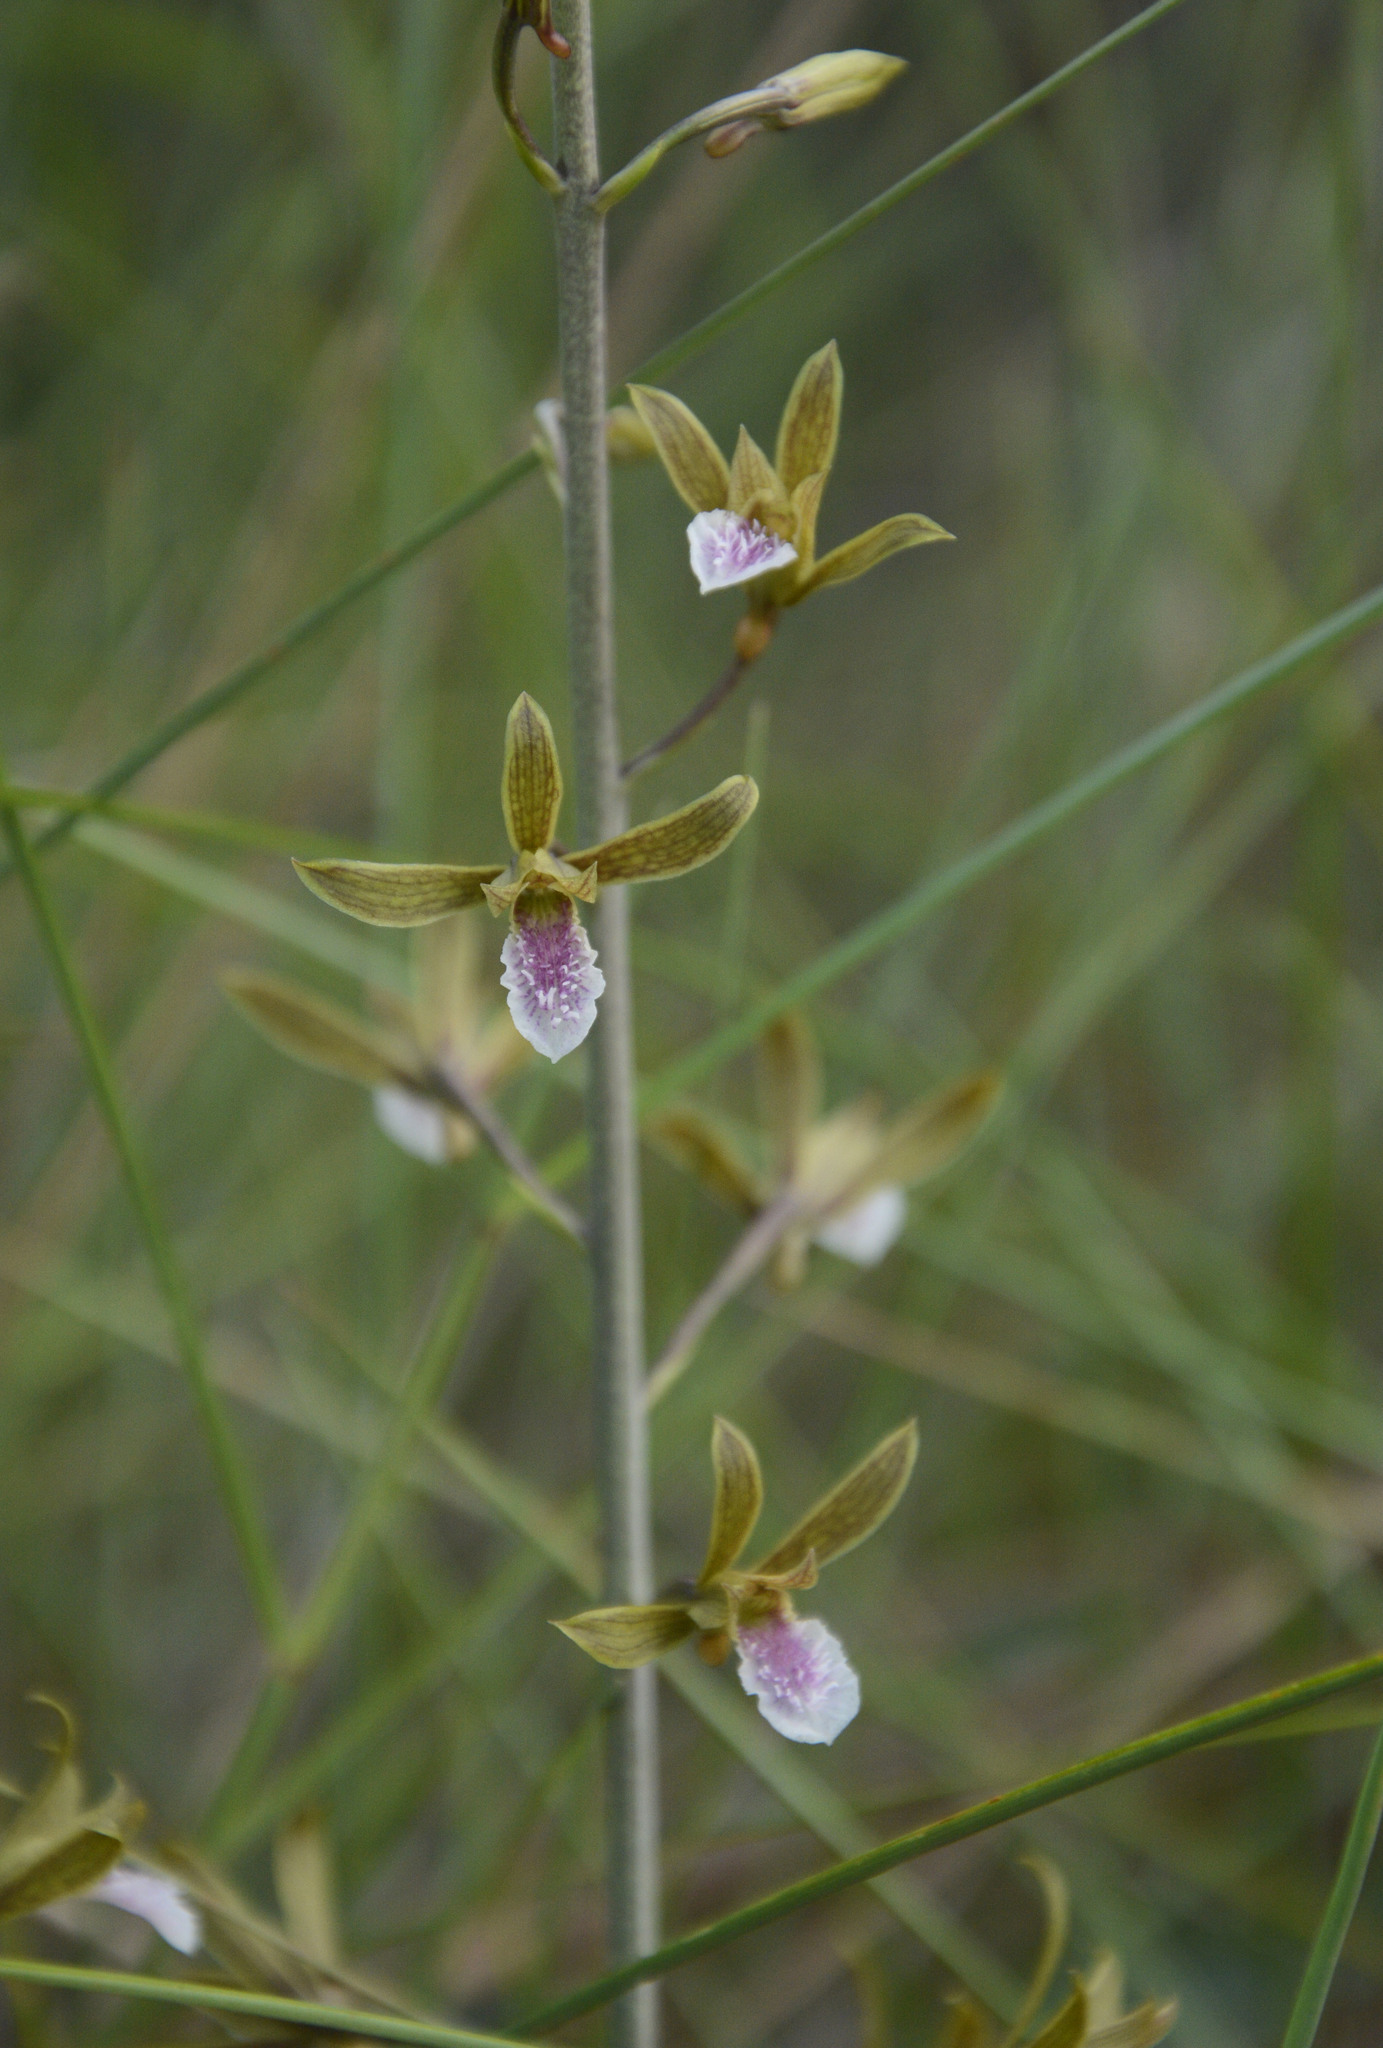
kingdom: Plantae
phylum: Tracheophyta
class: Liliopsida
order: Asparagales
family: Orchidaceae
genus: Eulophia
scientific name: Eulophia graminea
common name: Orchid
